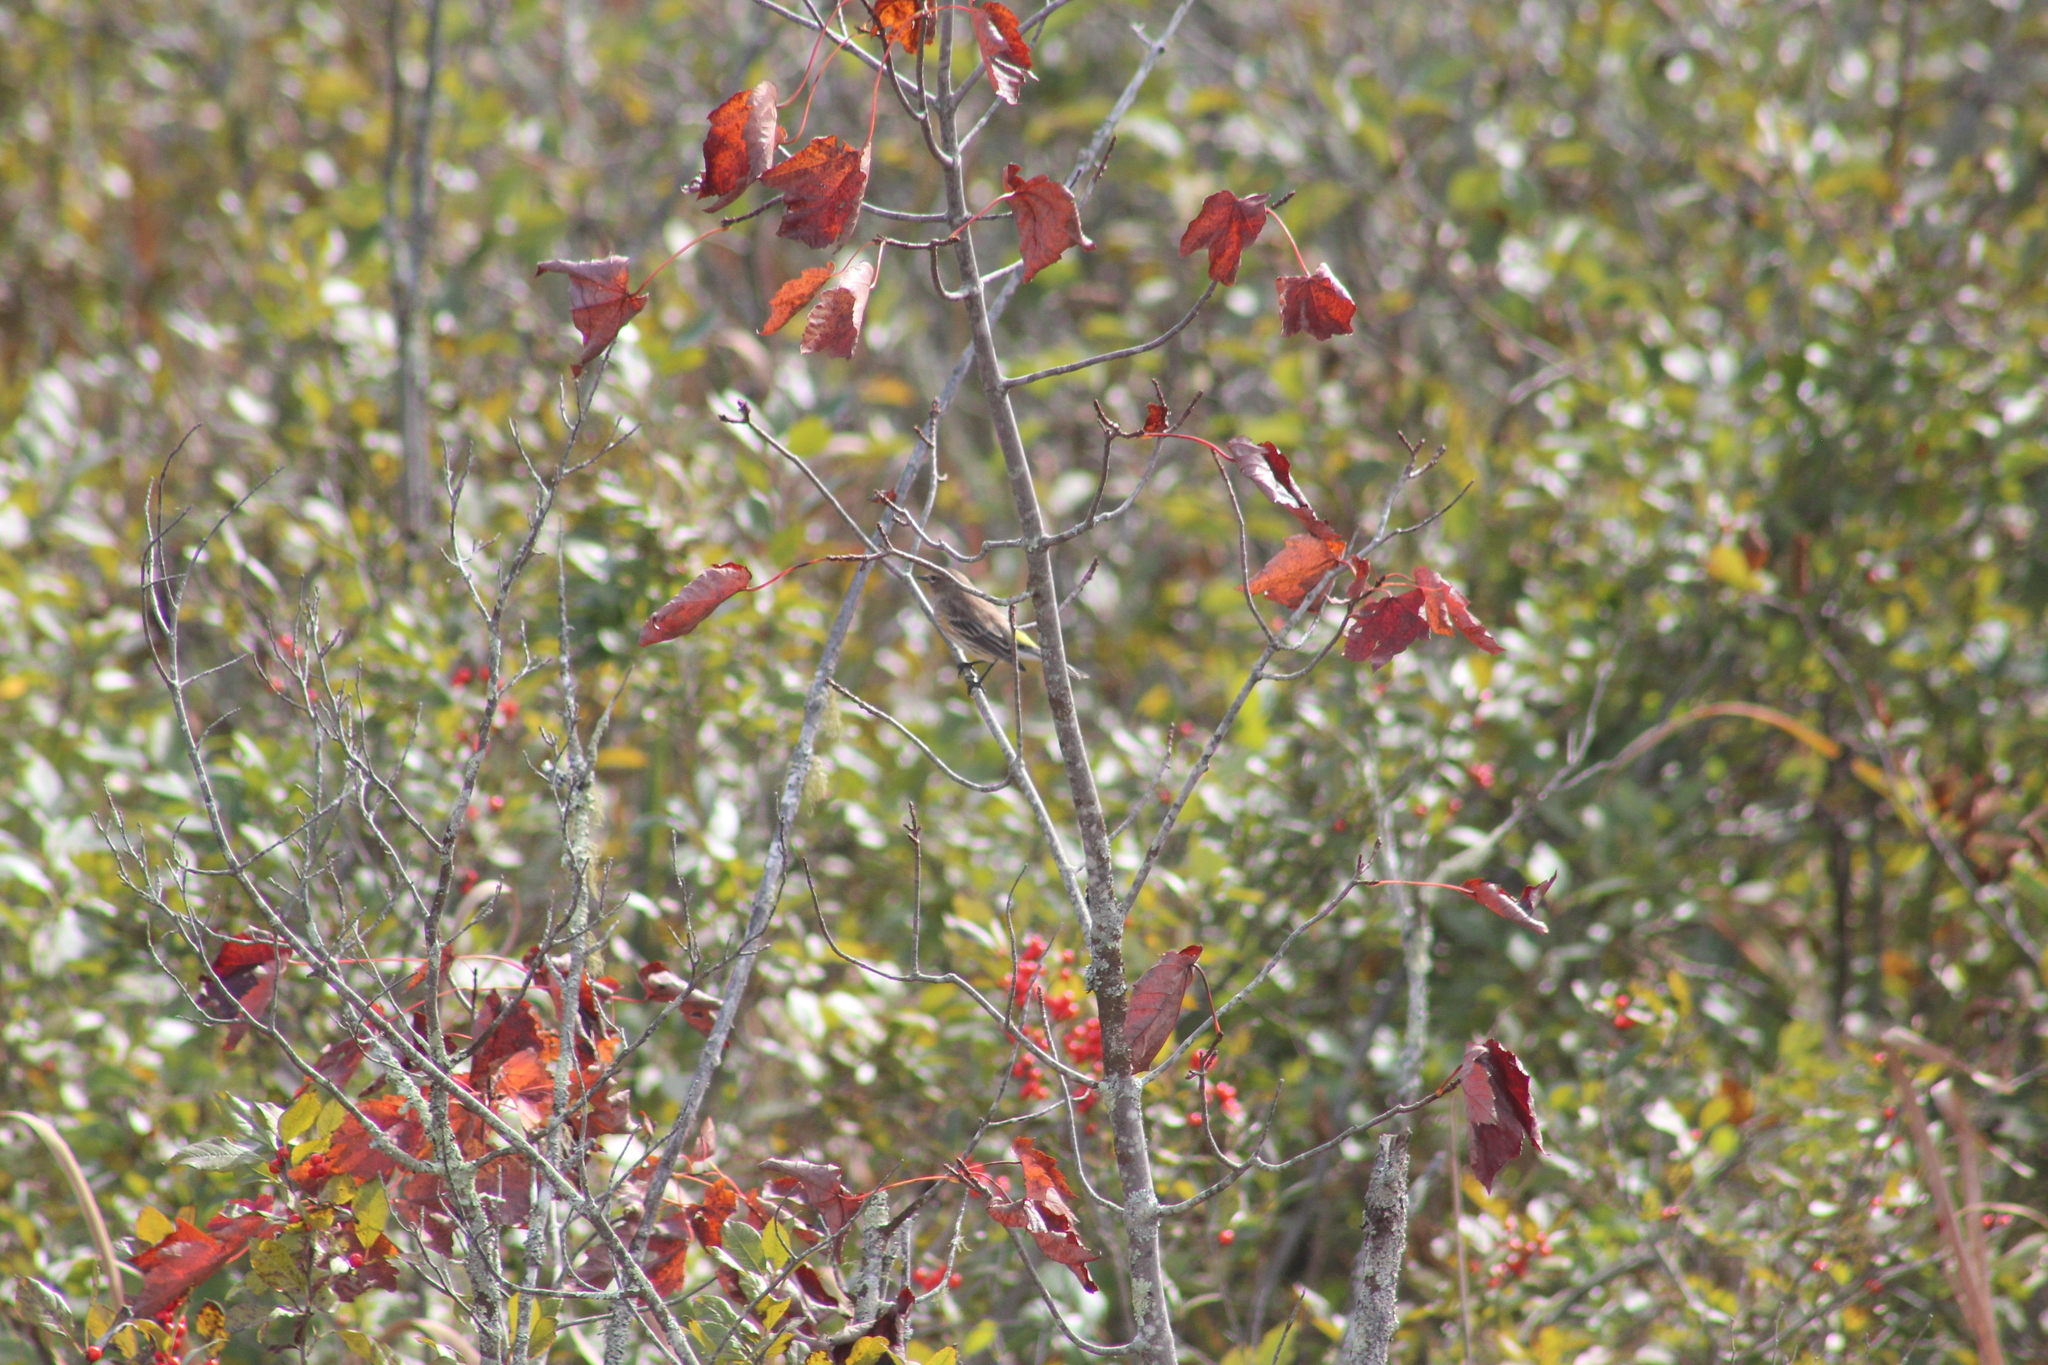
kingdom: Animalia
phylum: Chordata
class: Aves
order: Passeriformes
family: Parulidae
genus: Setophaga
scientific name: Setophaga coronata
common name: Myrtle warbler
